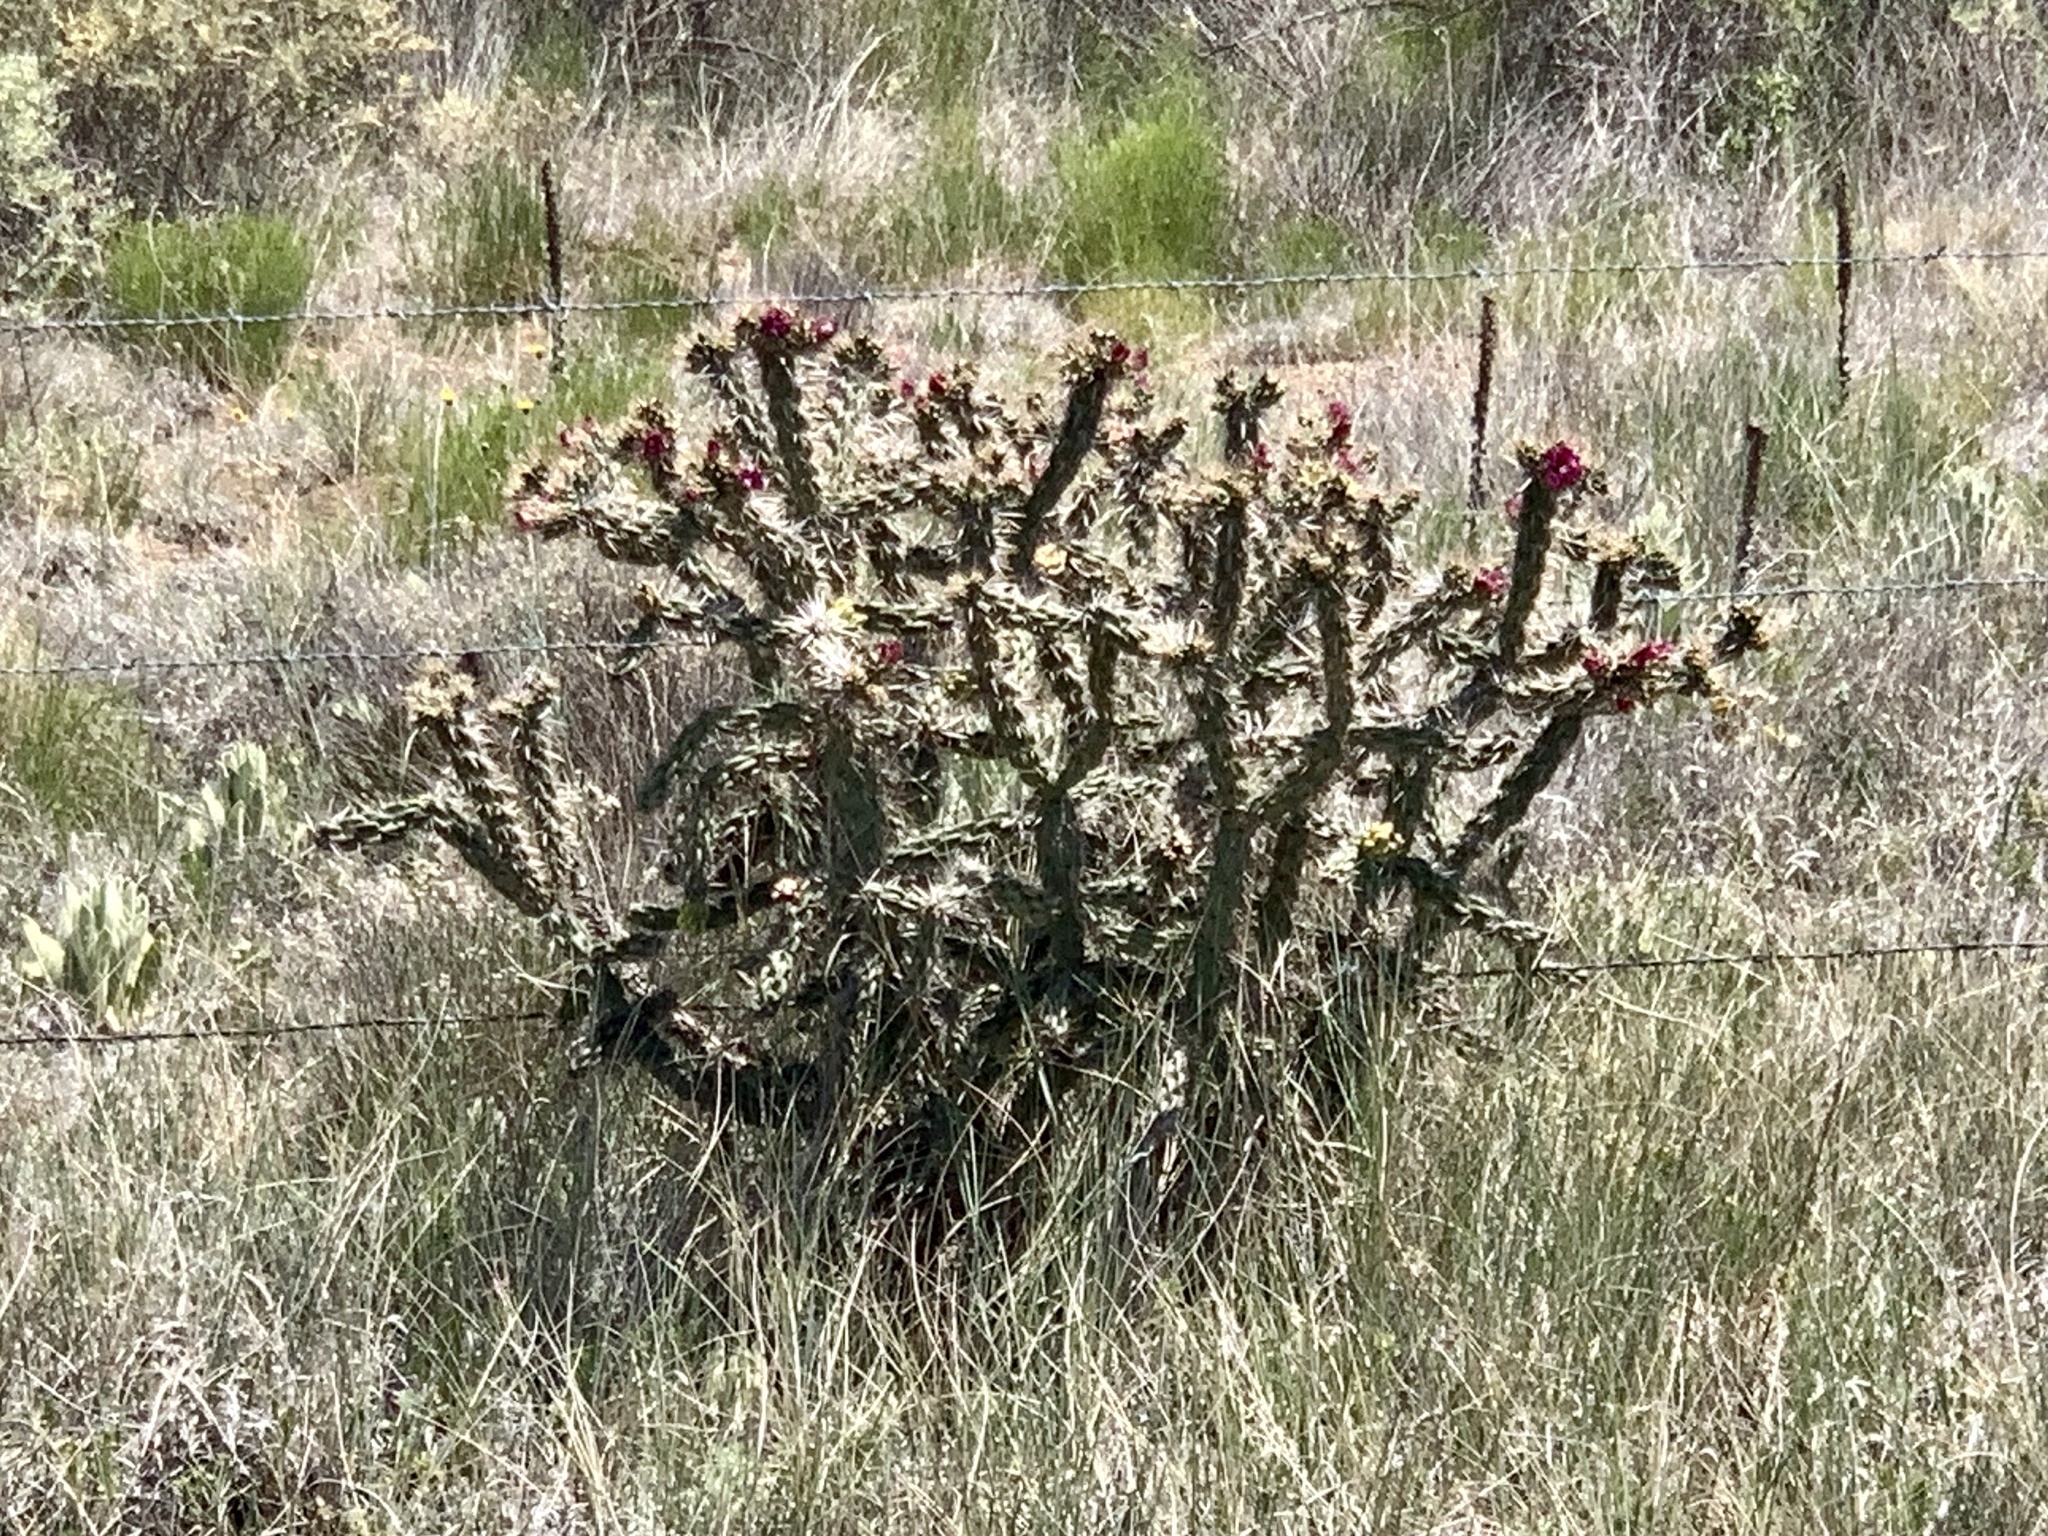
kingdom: Plantae
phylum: Tracheophyta
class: Magnoliopsida
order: Caryophyllales
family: Cactaceae
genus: Cylindropuntia
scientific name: Cylindropuntia imbricata
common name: Candelabrum cactus
